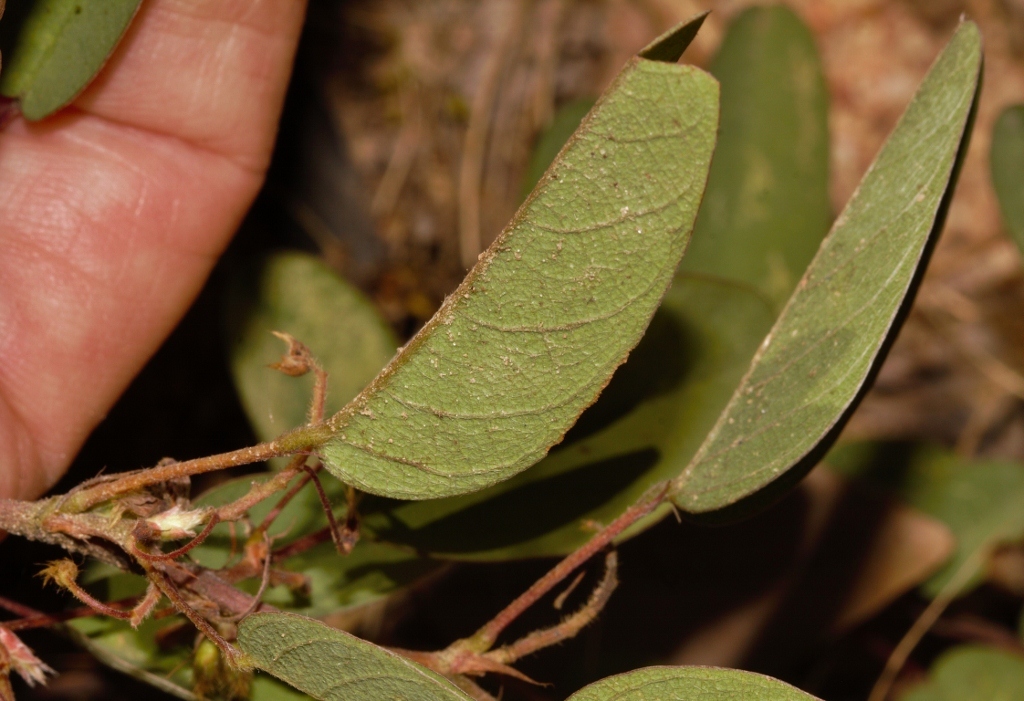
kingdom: Plantae
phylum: Tracheophyta
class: Magnoliopsida
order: Fabales
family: Fabaceae
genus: Grona
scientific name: Grona barbata
